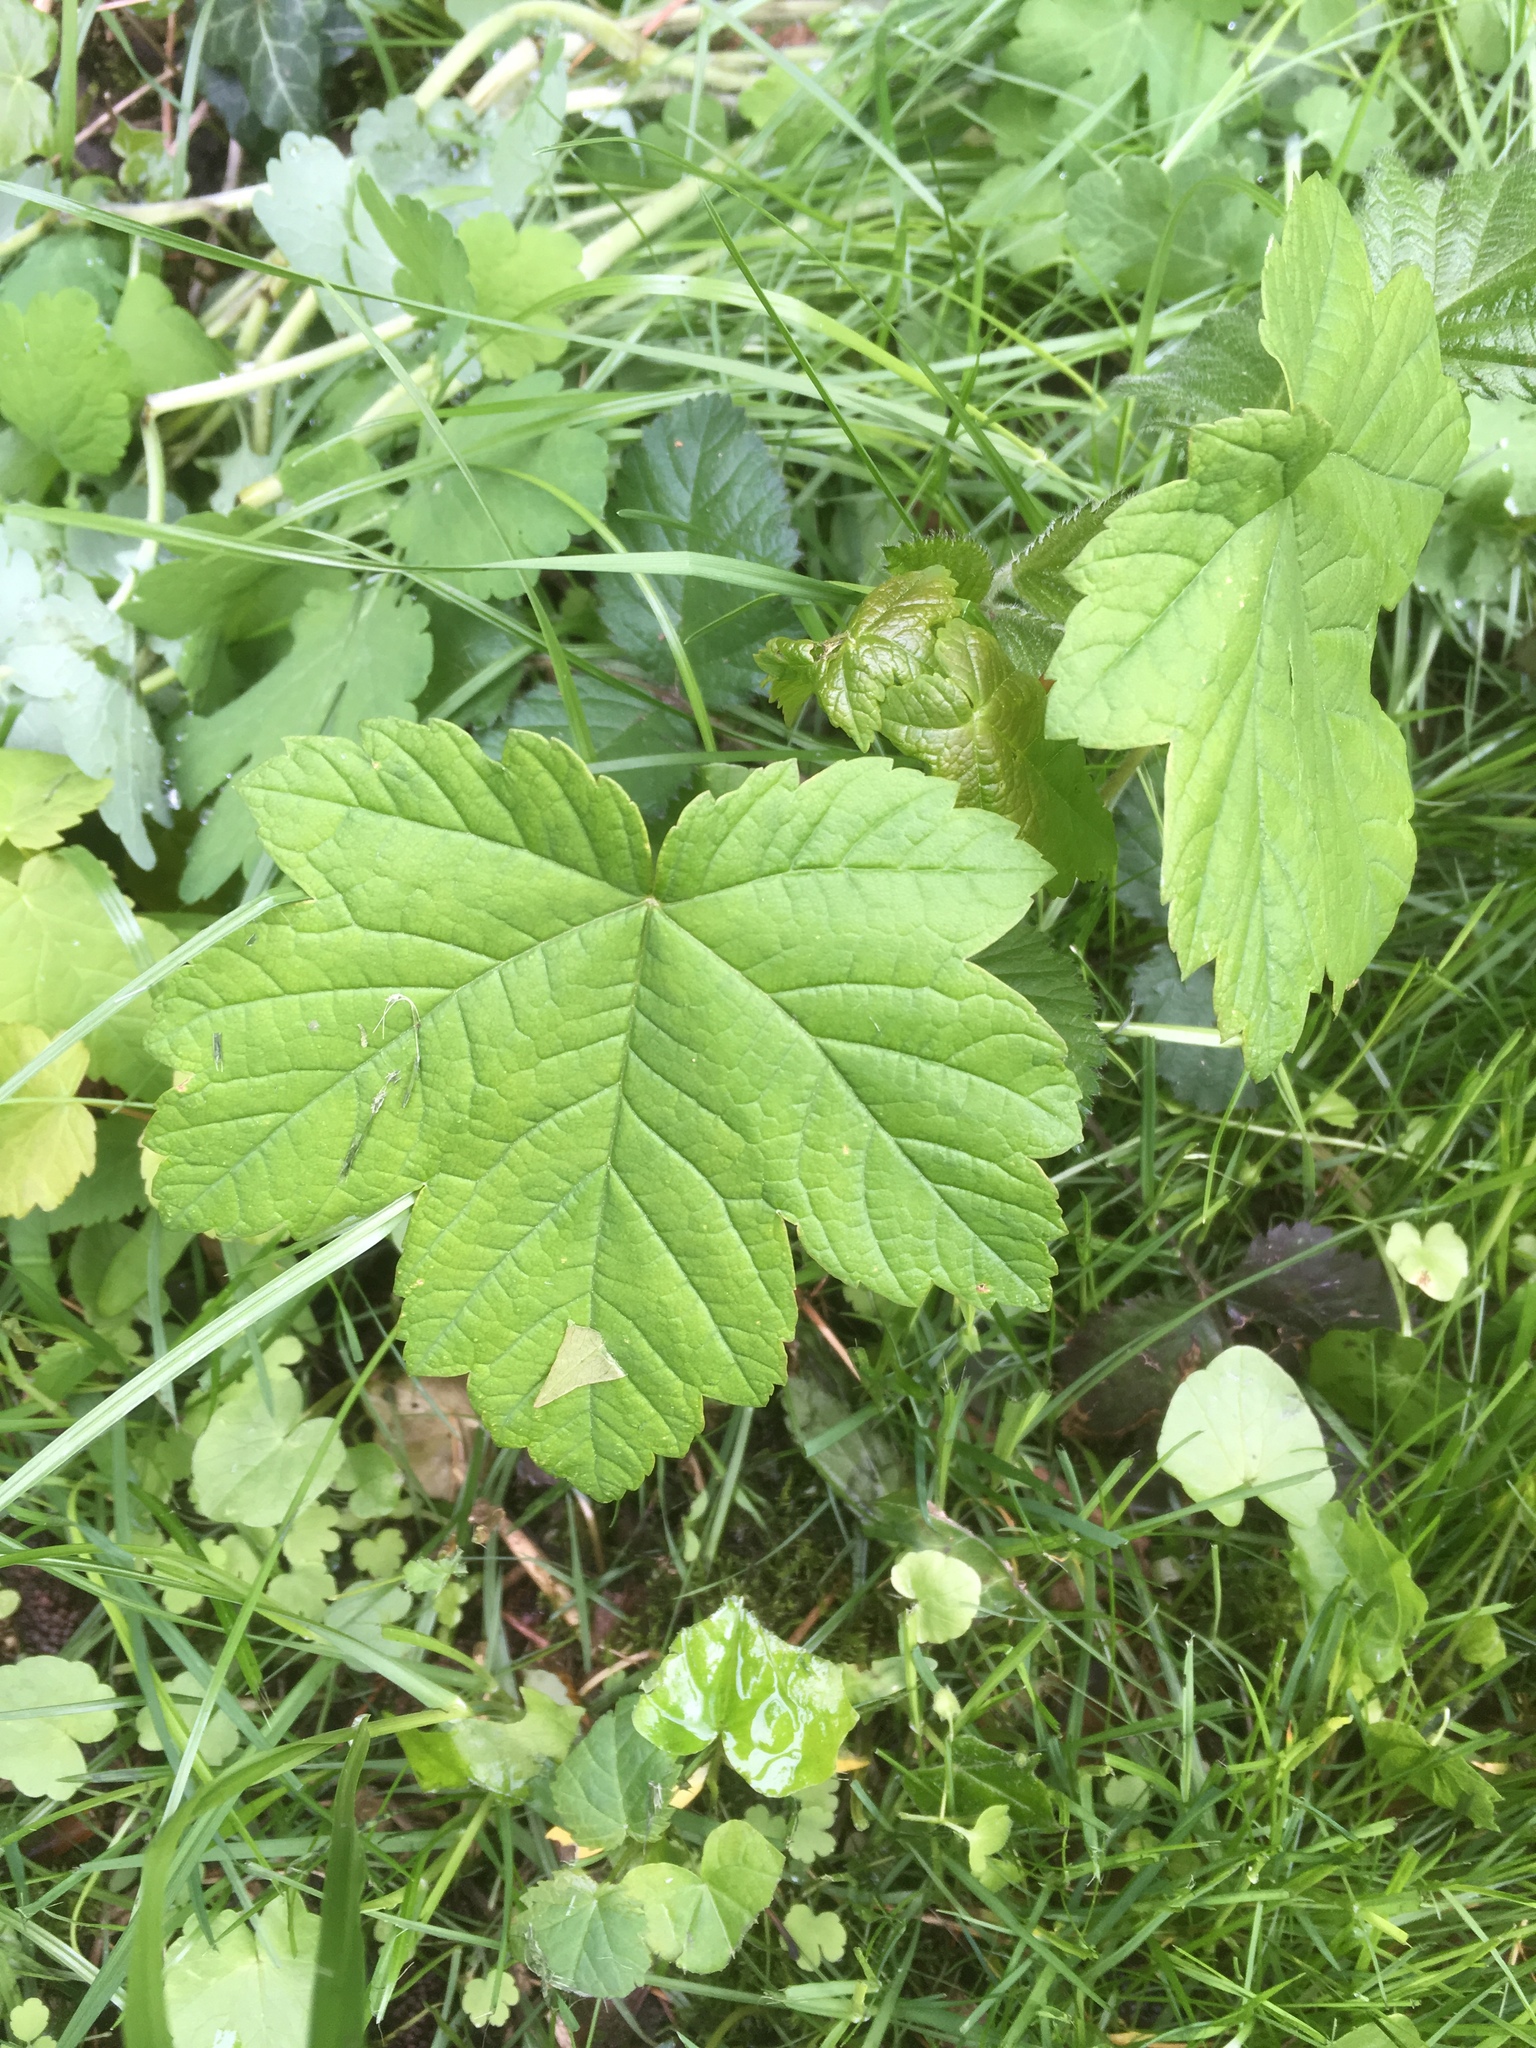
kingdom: Plantae
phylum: Tracheophyta
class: Magnoliopsida
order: Sapindales
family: Sapindaceae
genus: Acer
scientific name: Acer pseudoplatanus
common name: Sycamore
